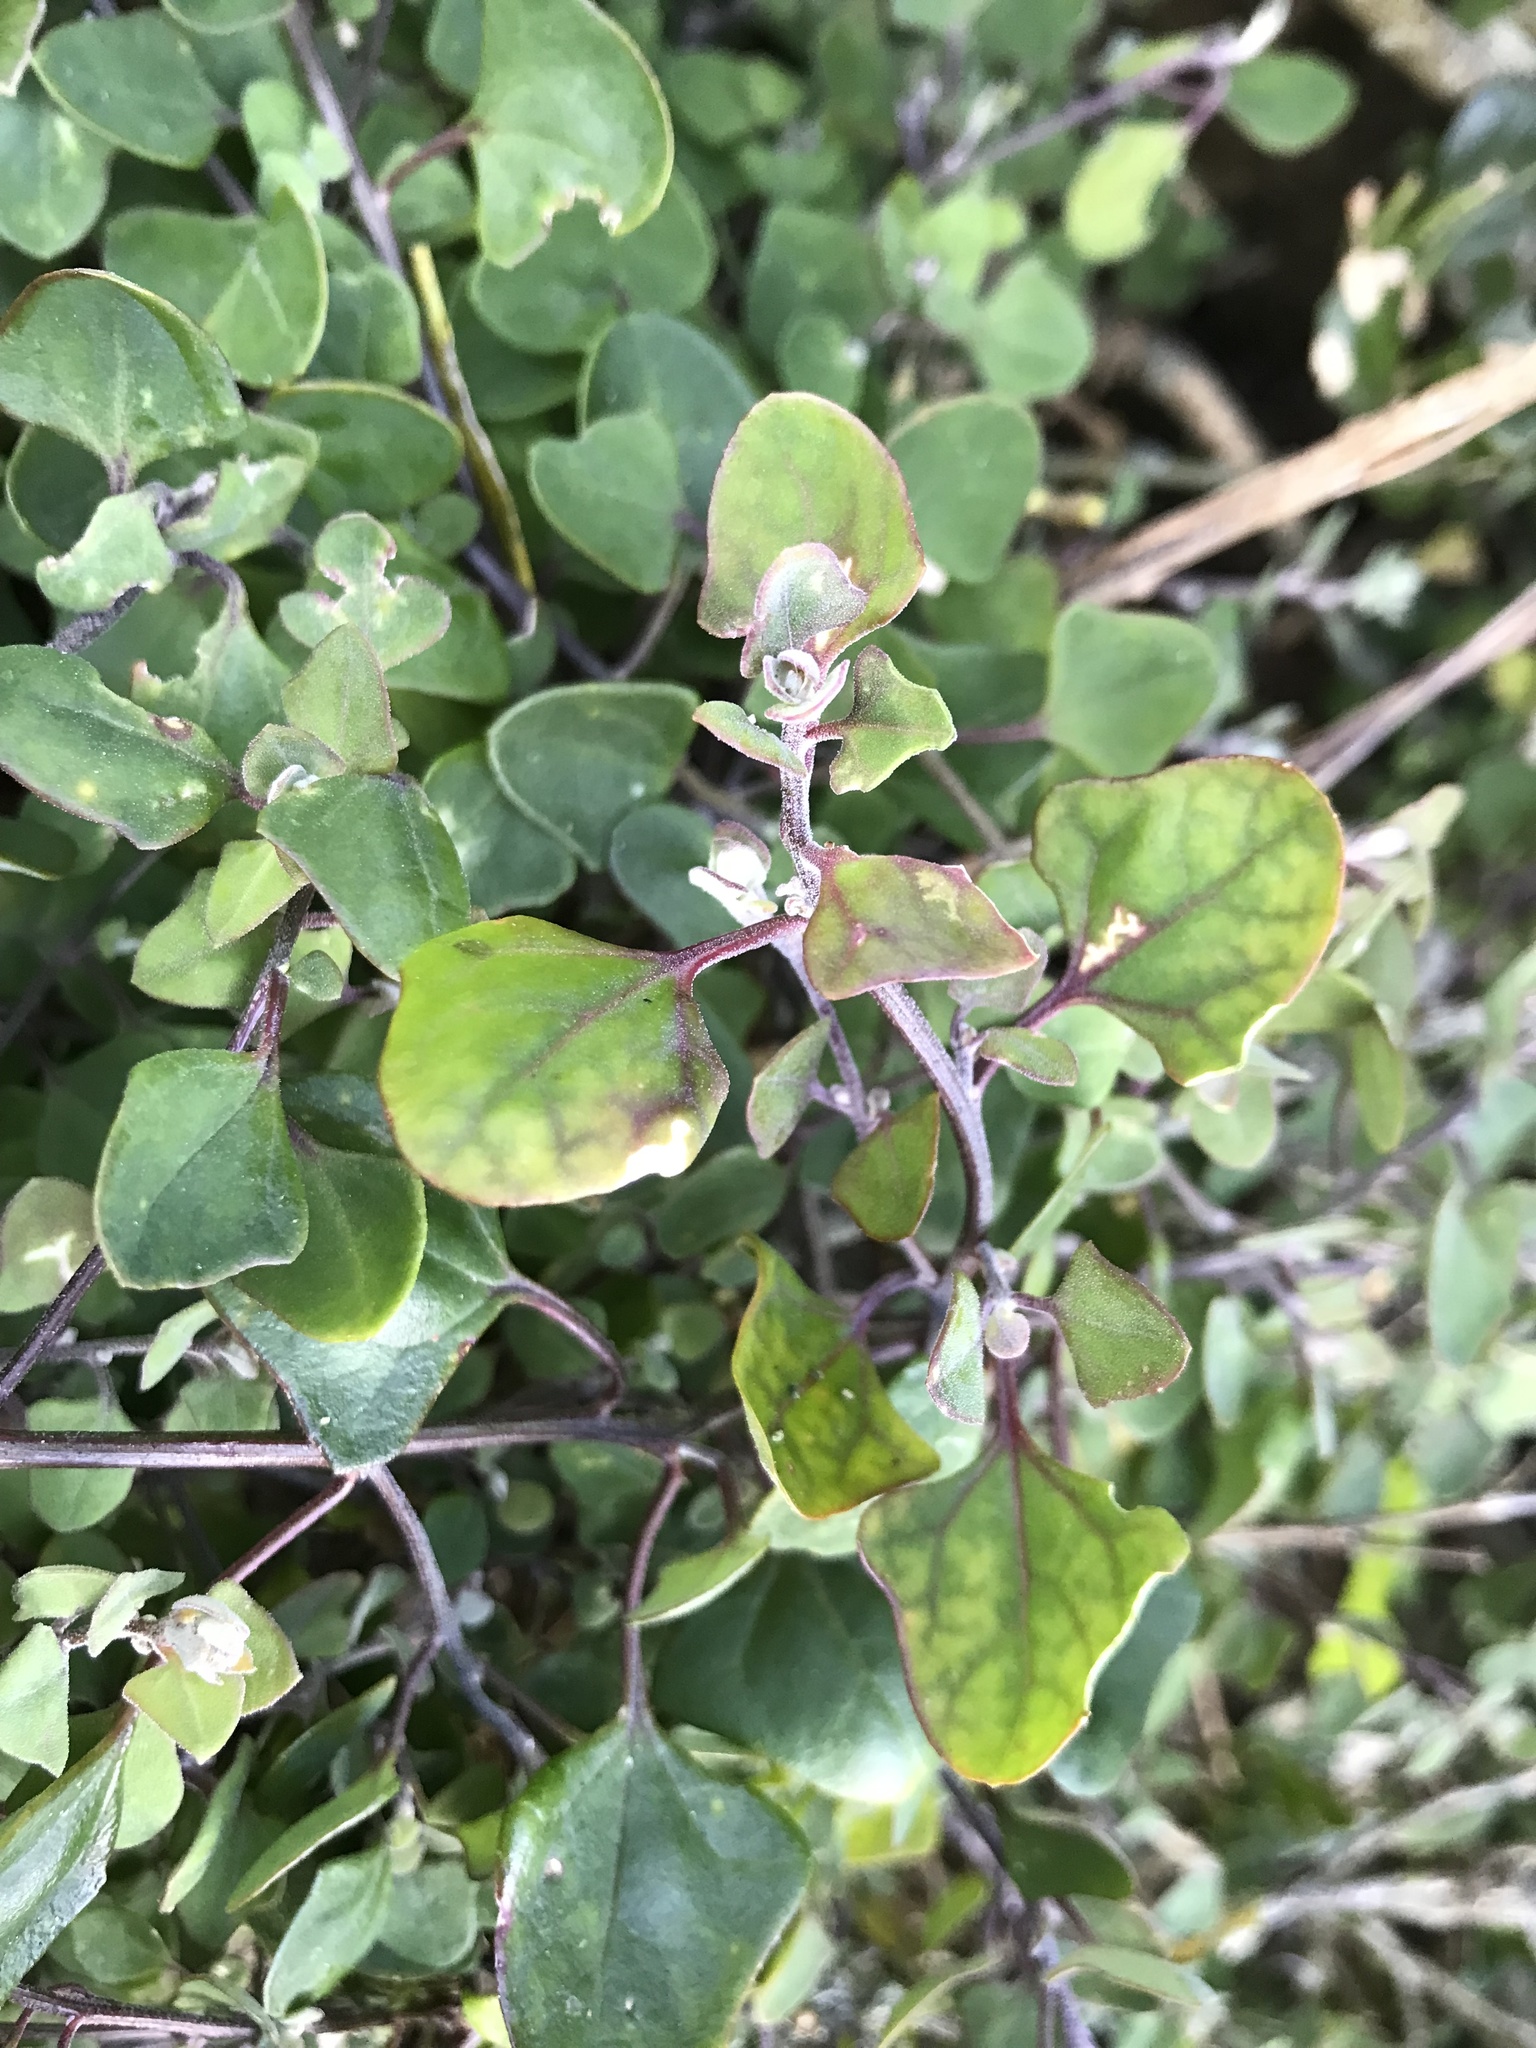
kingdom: Plantae
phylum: Tracheophyta
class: Magnoliopsida
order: Caryophyllales
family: Amaranthaceae
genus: Chenopodium
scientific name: Chenopodium triandrum
